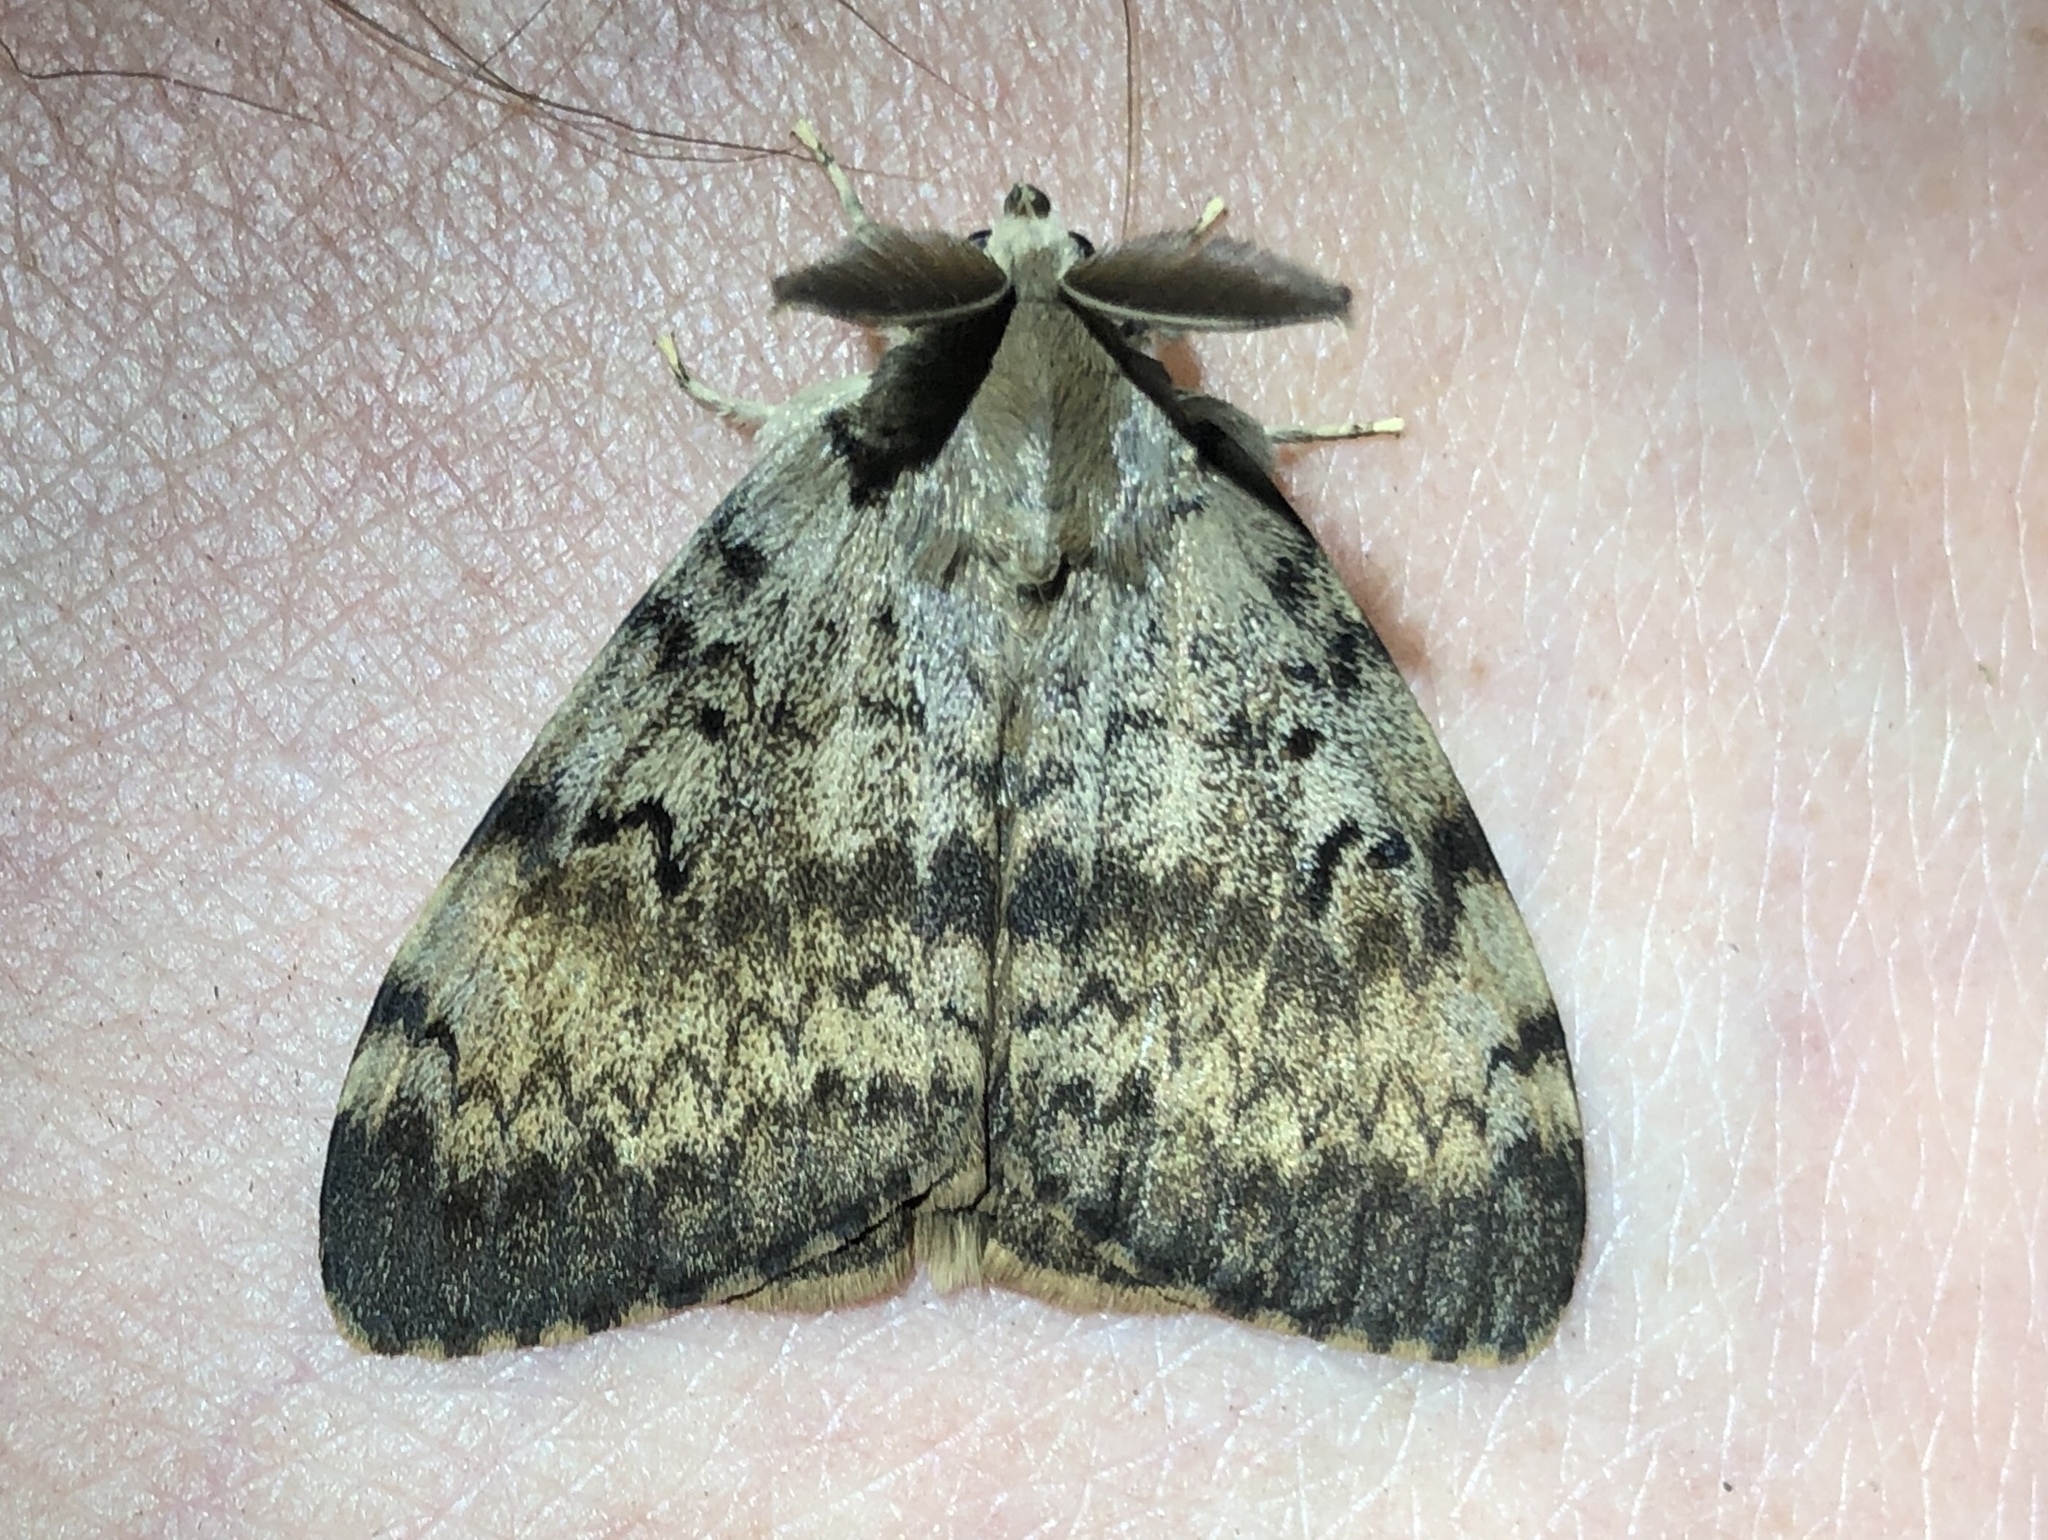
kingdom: Animalia
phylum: Arthropoda
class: Insecta
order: Lepidoptera
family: Erebidae
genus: Lymantria
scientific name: Lymantria dispar
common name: Gypsy moth
